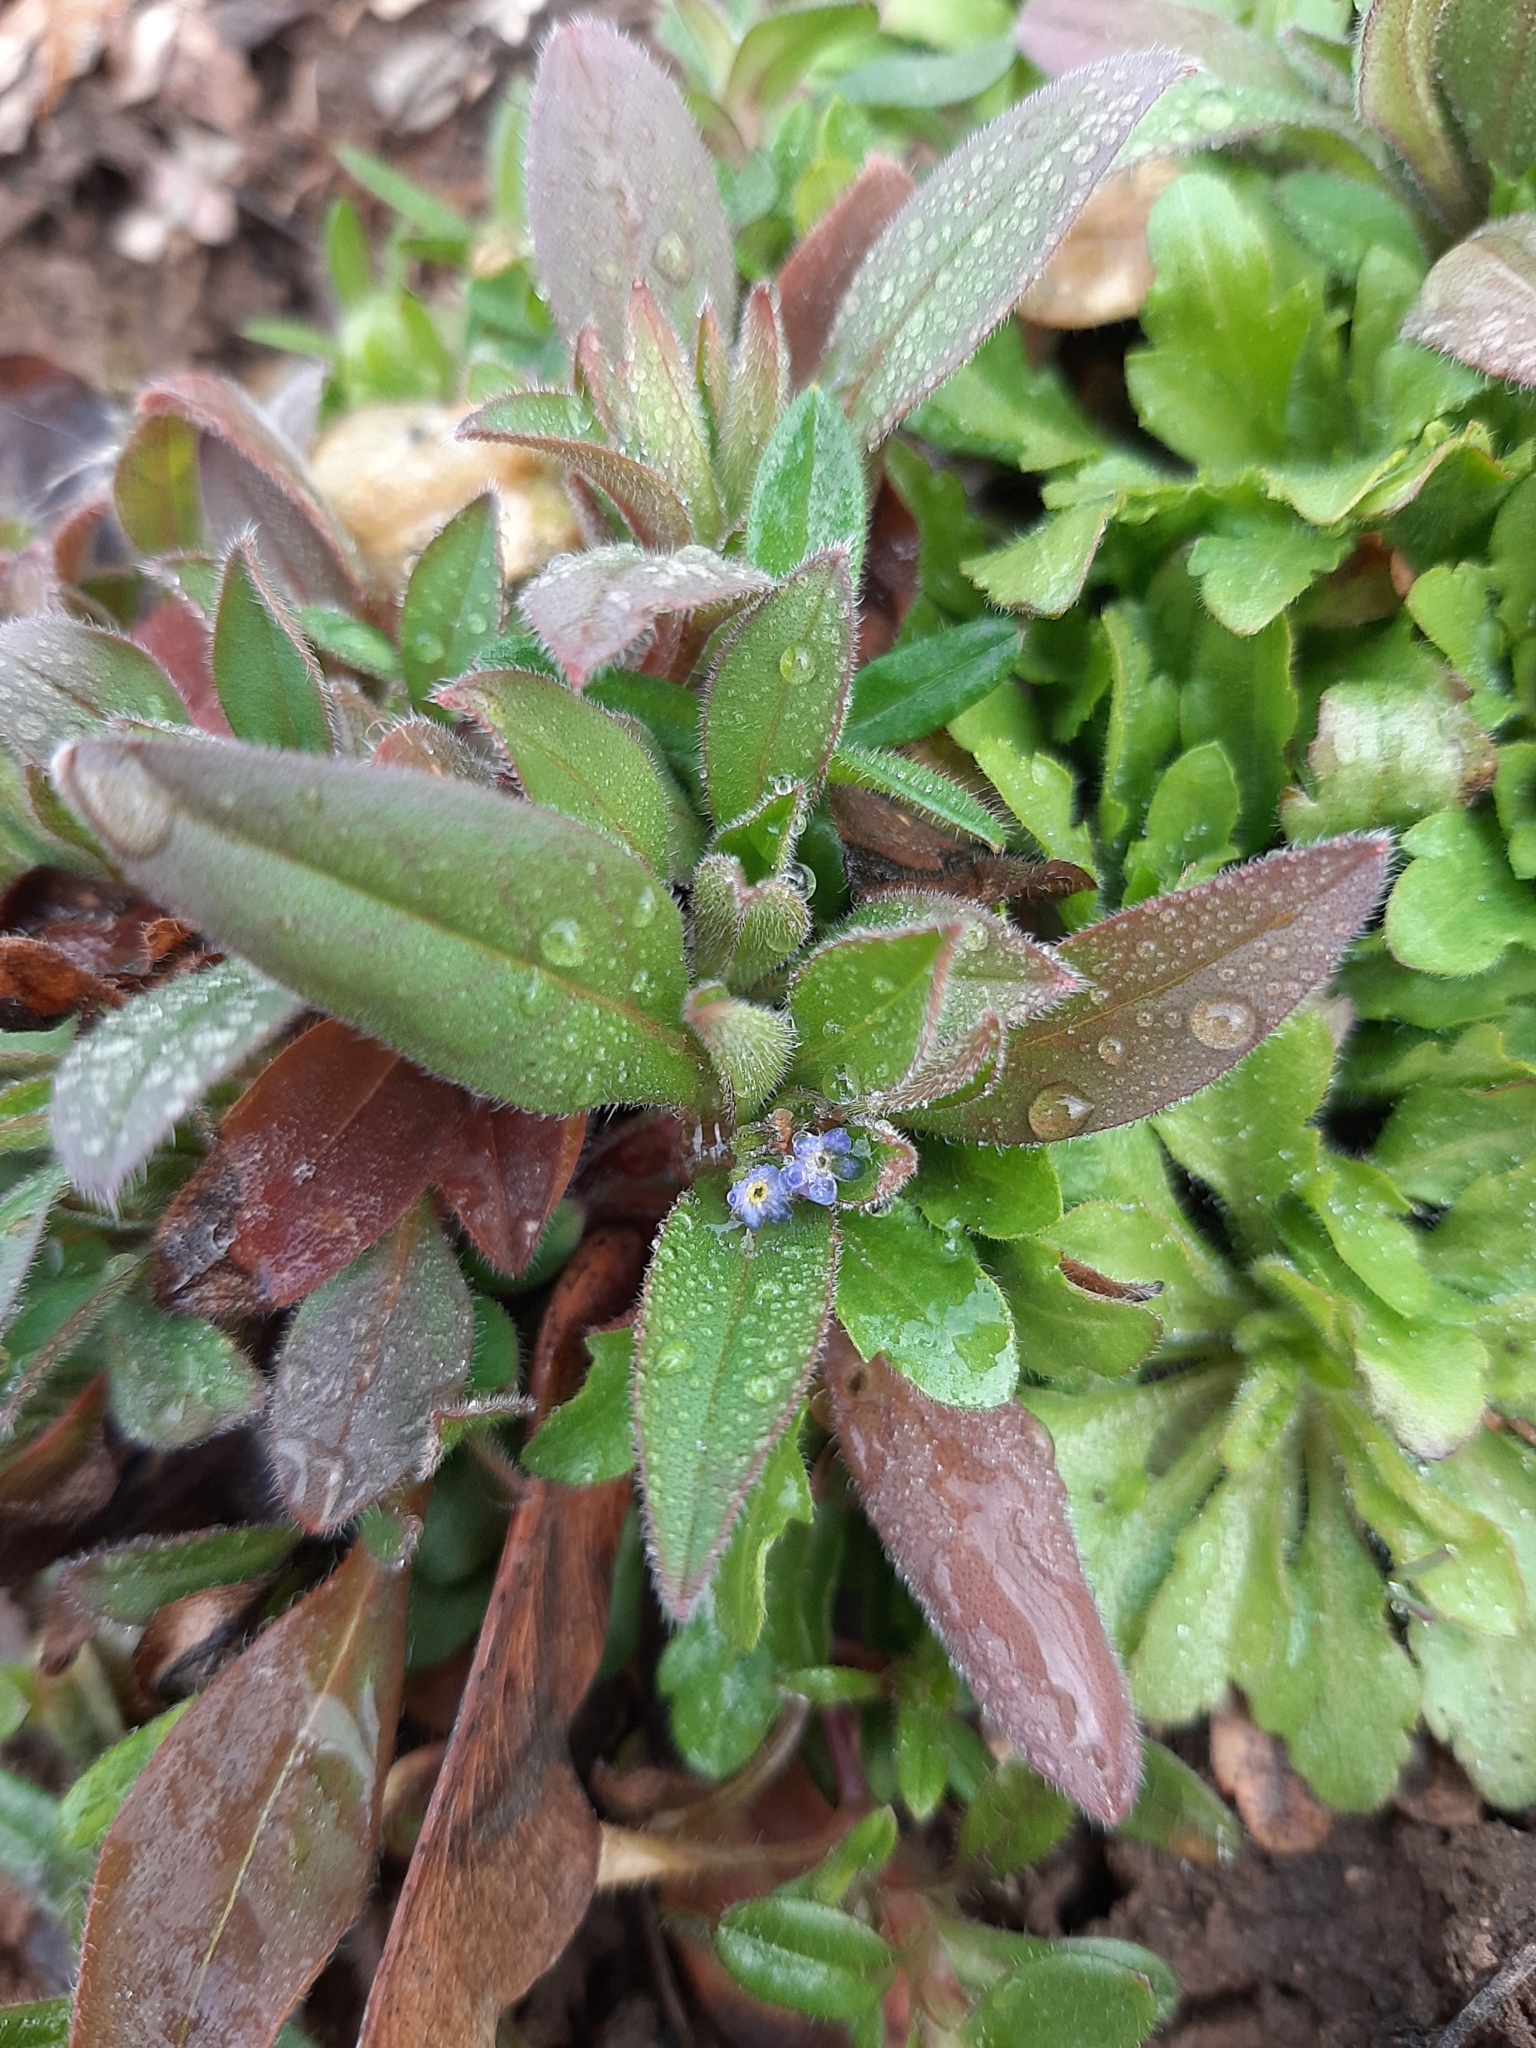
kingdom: Plantae
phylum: Tracheophyta
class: Magnoliopsida
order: Boraginales
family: Boraginaceae
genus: Myosotis
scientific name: Myosotis arvensis
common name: Field forget-me-not
